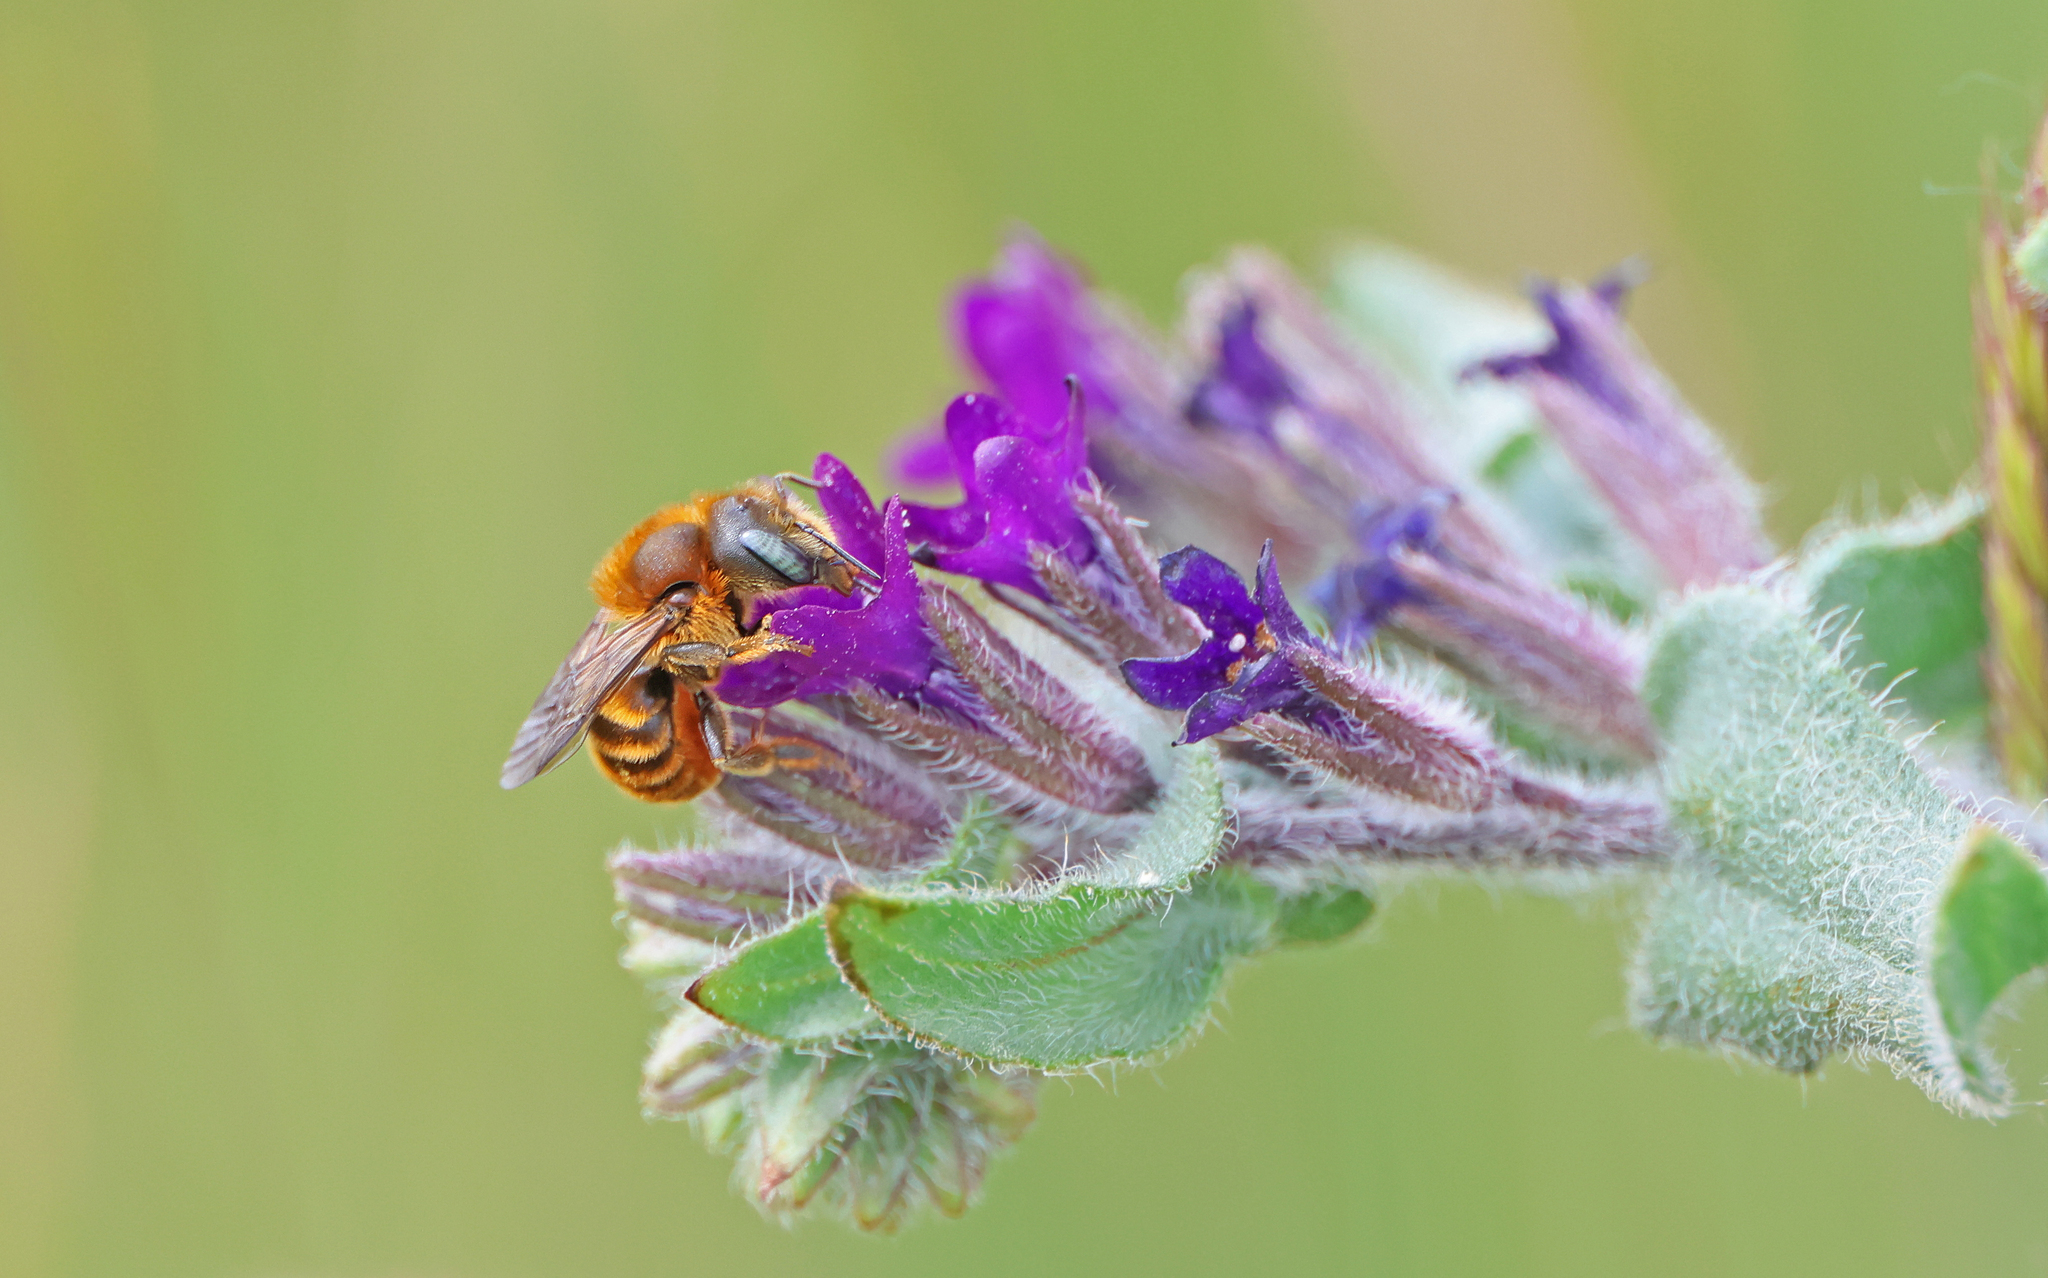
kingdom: Animalia
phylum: Arthropoda
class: Insecta
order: Hymenoptera
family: Megachilidae
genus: Osmia
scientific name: Osmia aurulenta
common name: Gold-fringed mason bee
